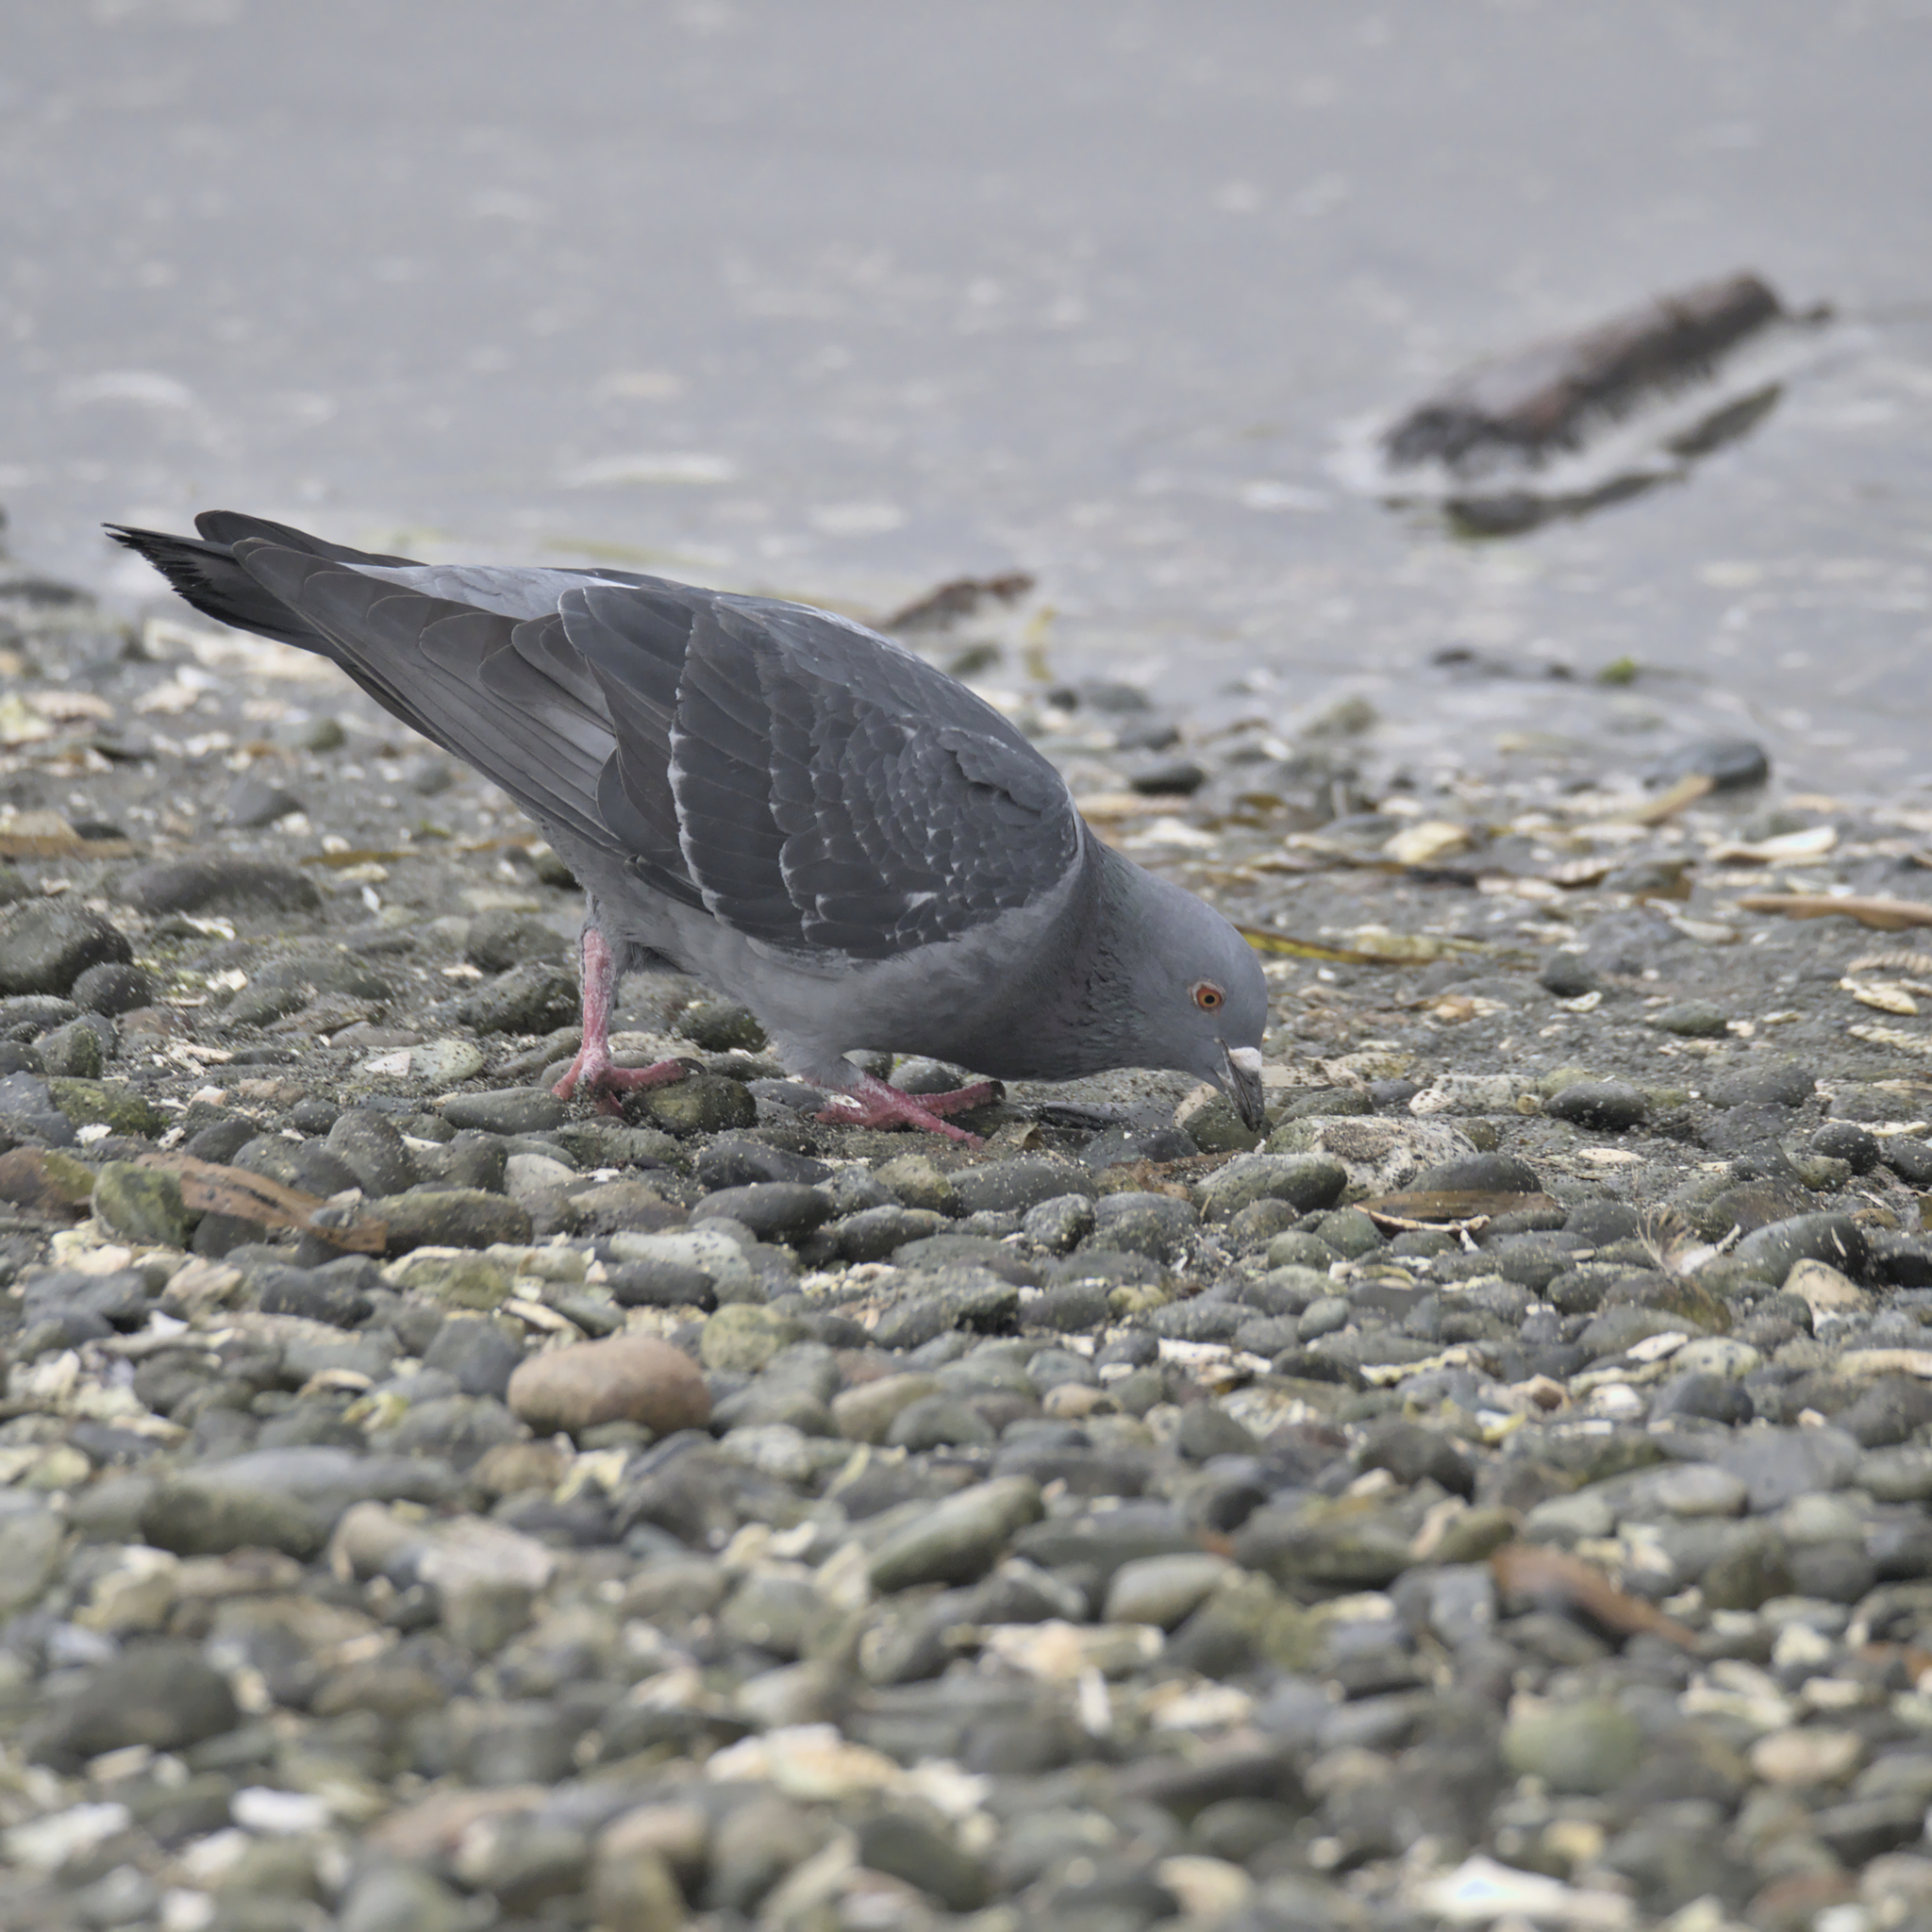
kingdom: Animalia
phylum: Chordata
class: Aves
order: Columbiformes
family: Columbidae
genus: Columba
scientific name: Columba livia
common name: Rock pigeon
